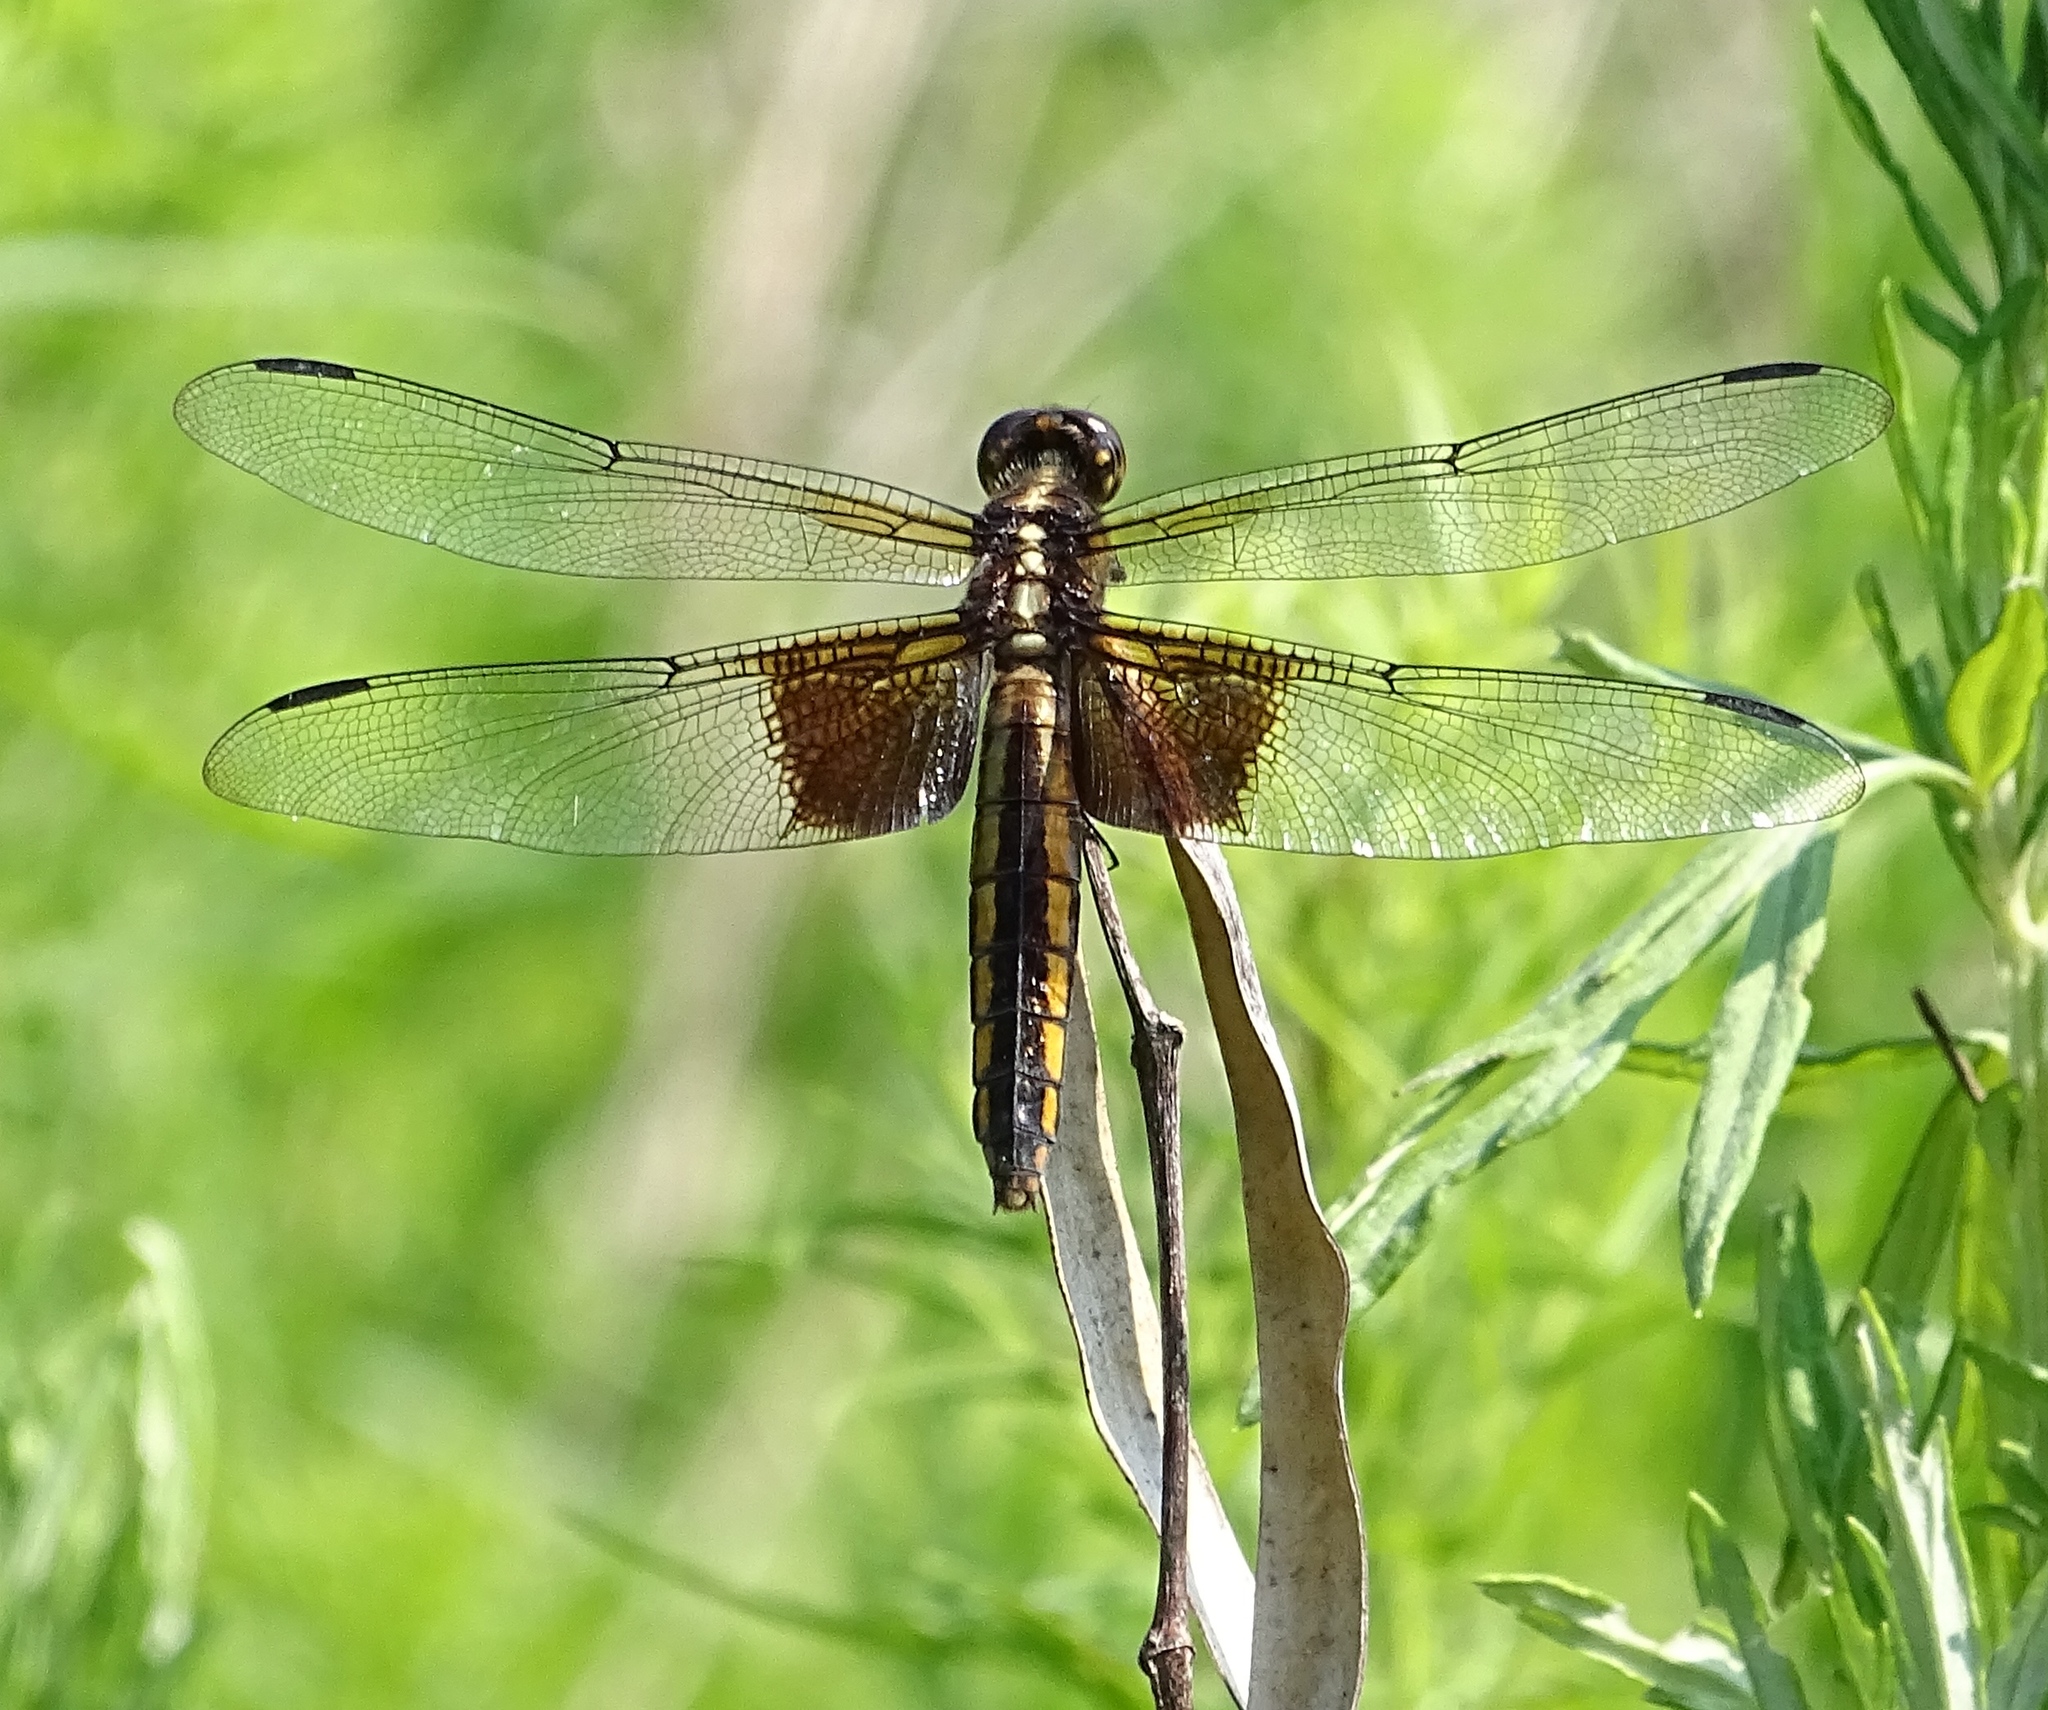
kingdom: Animalia
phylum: Arthropoda
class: Insecta
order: Odonata
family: Libellulidae
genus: Libellula
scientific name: Libellula luctuosa
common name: Widow skimmer
